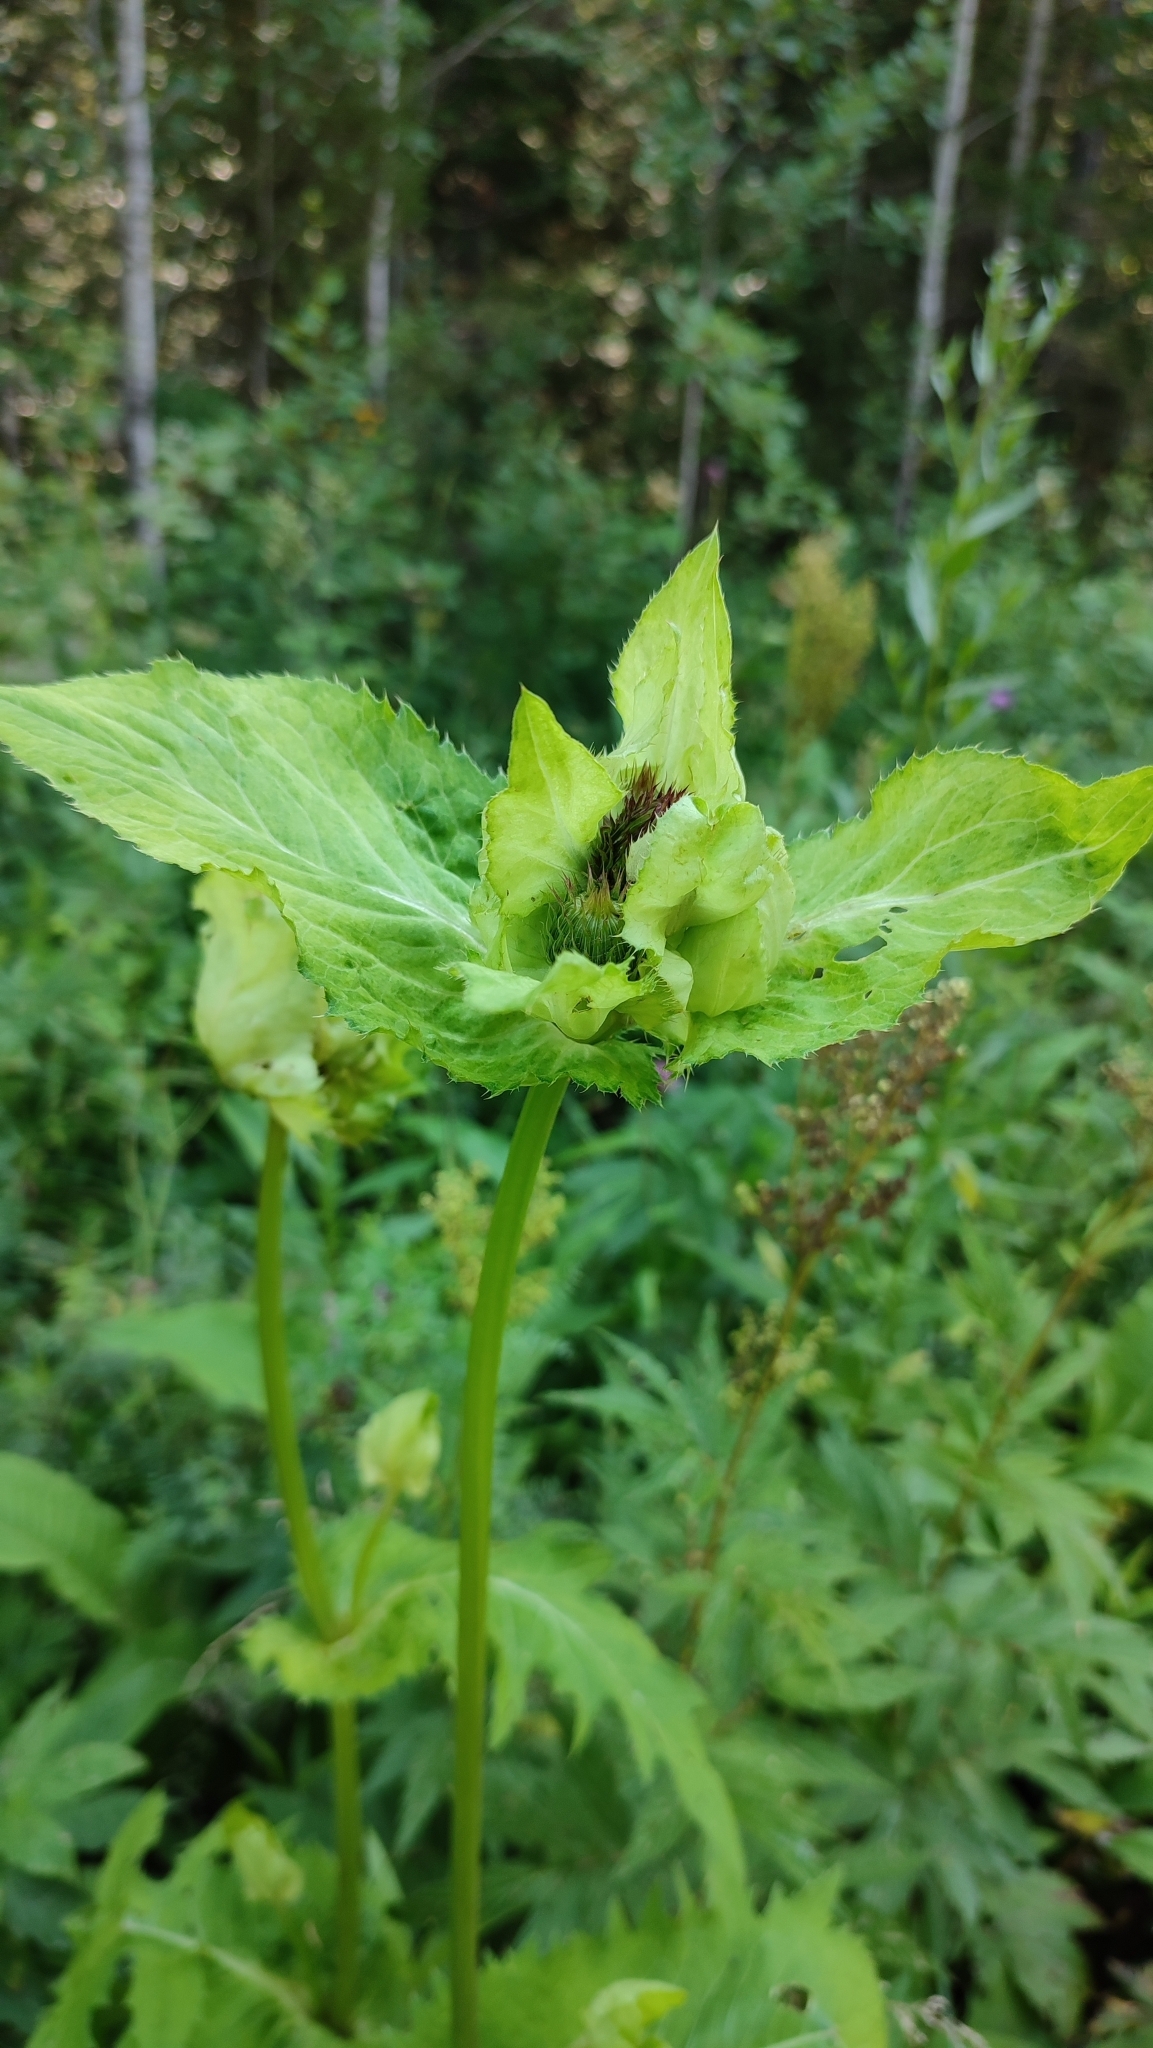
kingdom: Plantae
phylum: Tracheophyta
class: Magnoliopsida
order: Asterales
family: Asteraceae
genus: Cirsium
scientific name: Cirsium oleraceum
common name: Cabbage thistle
